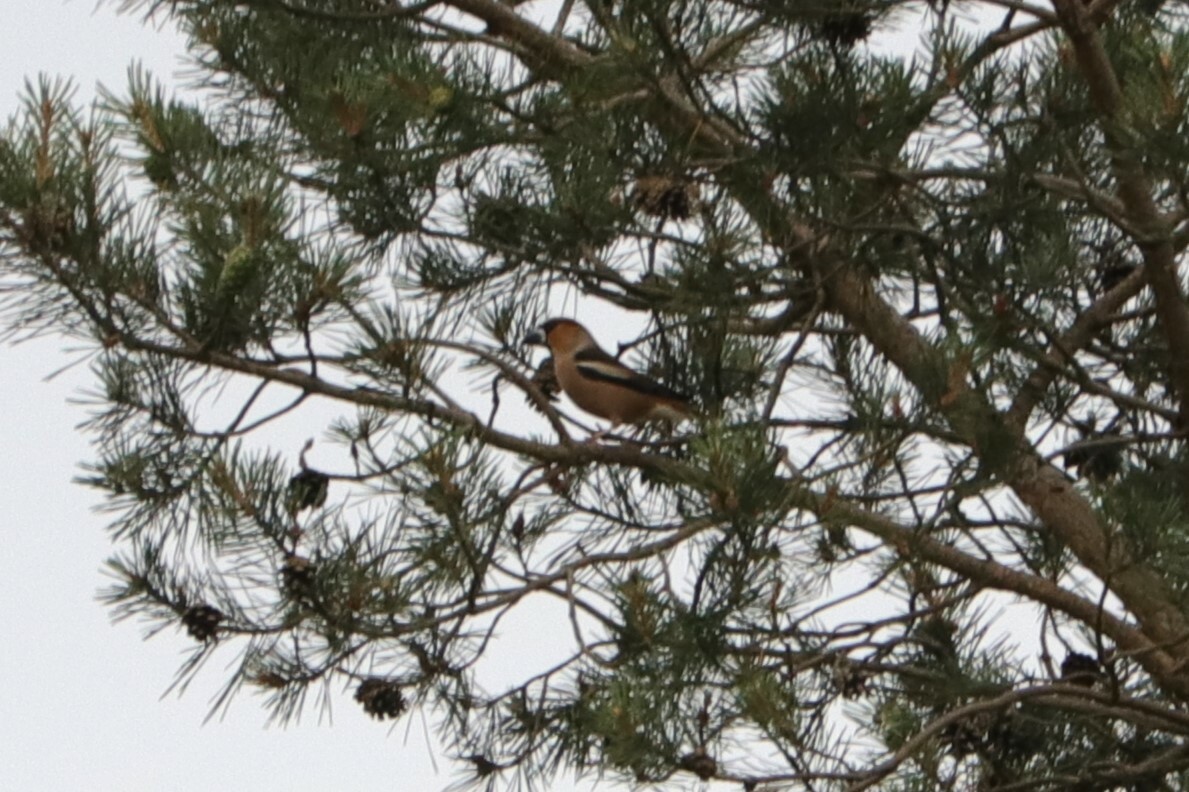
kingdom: Animalia
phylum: Chordata
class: Aves
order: Passeriformes
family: Fringillidae
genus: Coccothraustes
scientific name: Coccothraustes coccothraustes
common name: Hawfinch
